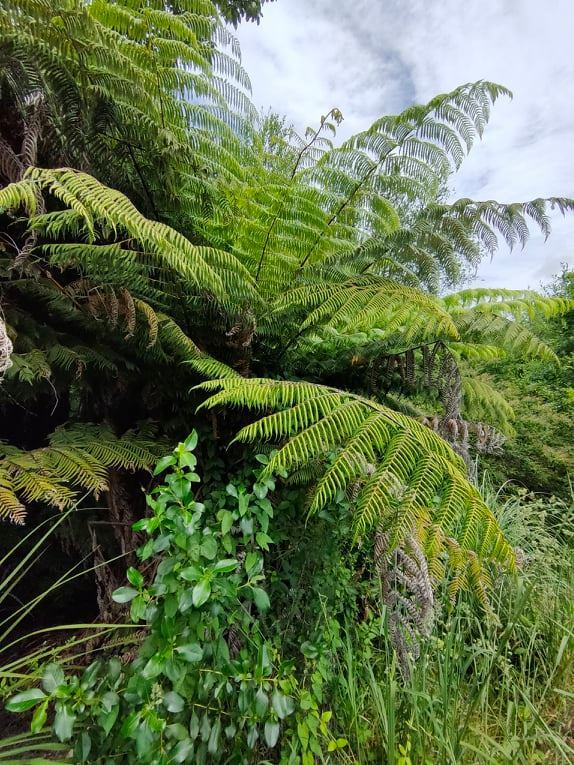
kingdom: Plantae
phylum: Tracheophyta
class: Polypodiopsida
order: Cyatheales
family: Cyatheaceae
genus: Alsophila
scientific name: Alsophila dealbata
